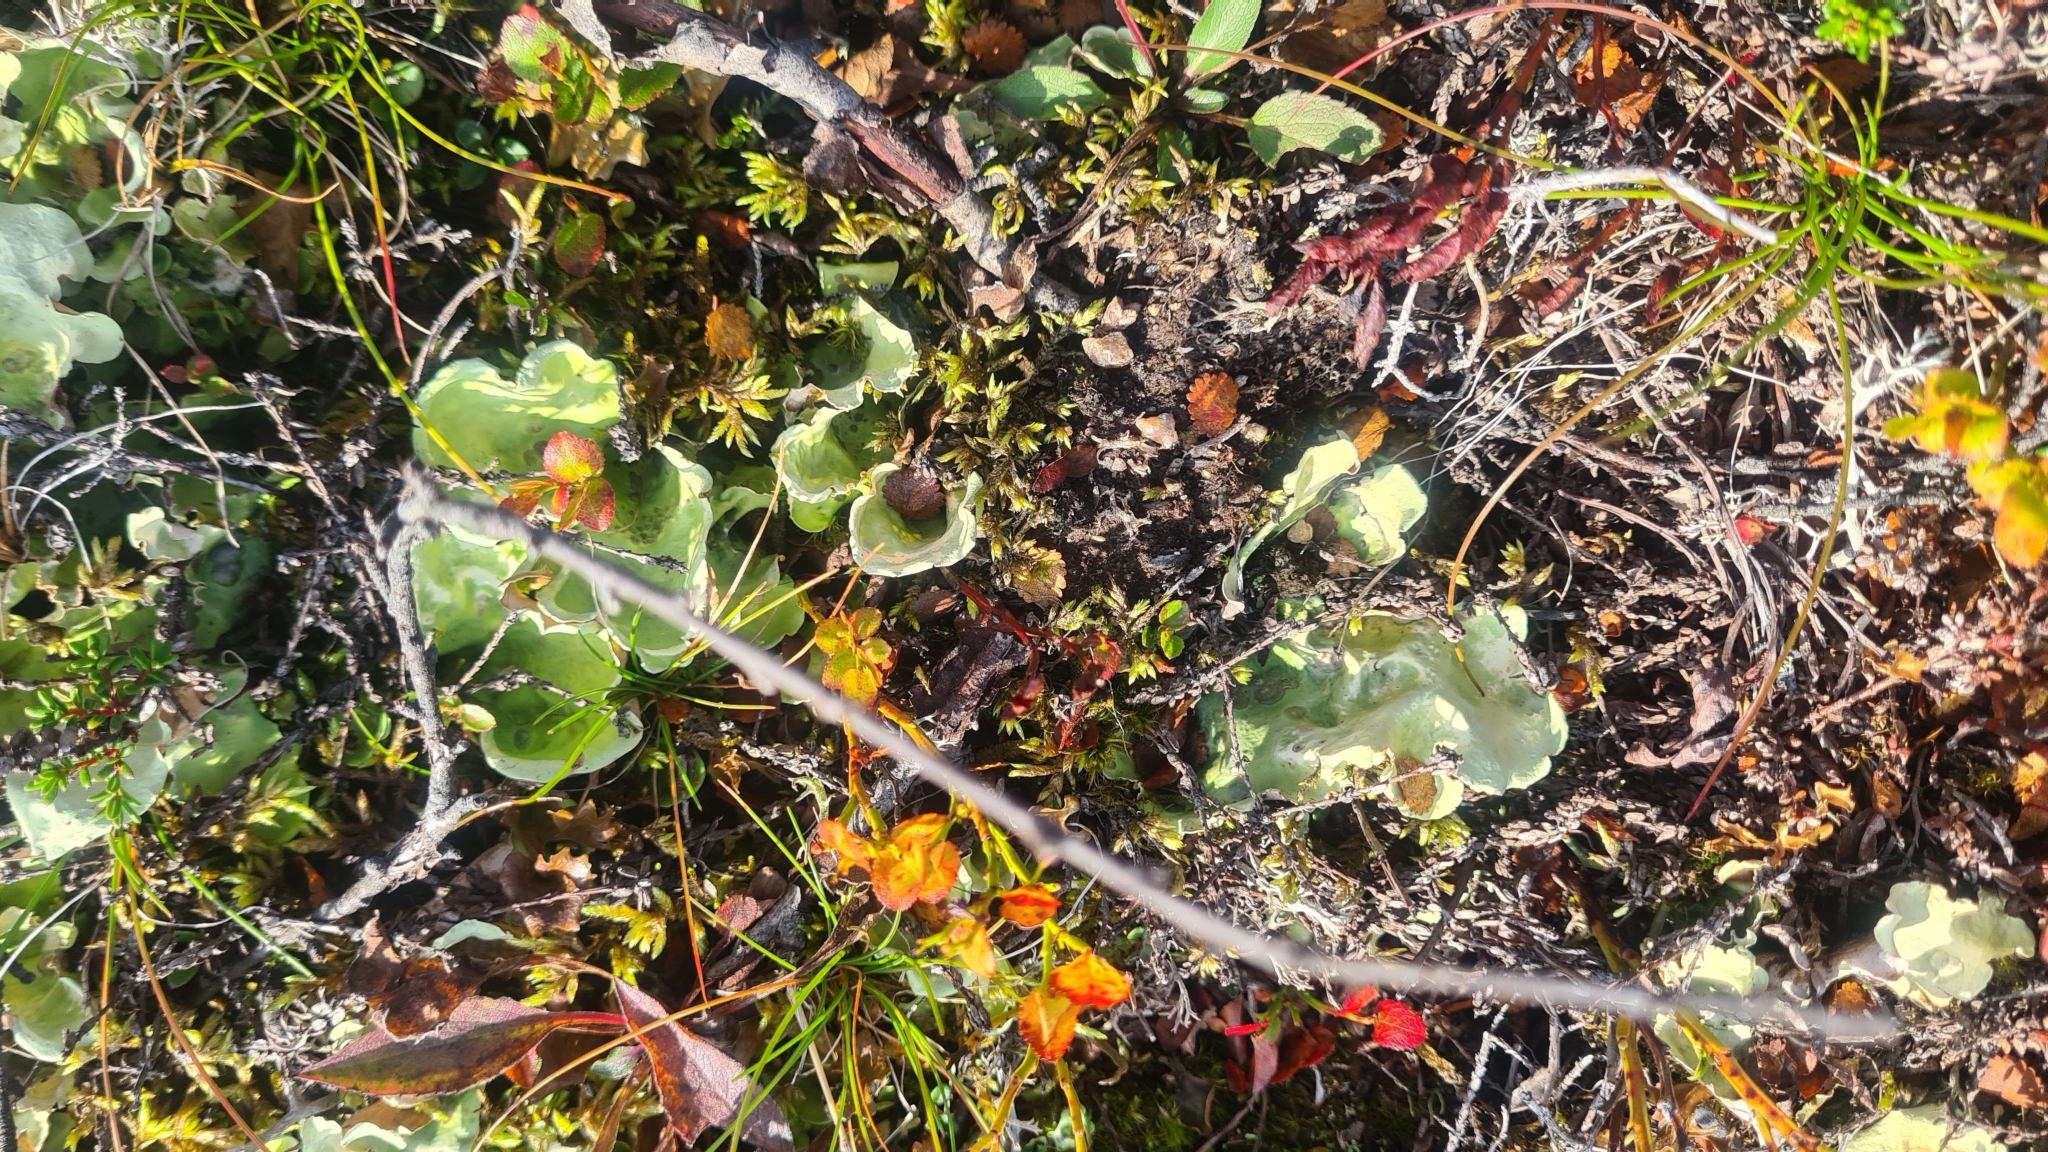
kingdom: Fungi
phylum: Ascomycota
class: Lecanoromycetes
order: Peltigerales
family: Nephromataceae
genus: Nephroma
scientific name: Nephroma arcticum
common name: Arctic kidney-lichen
